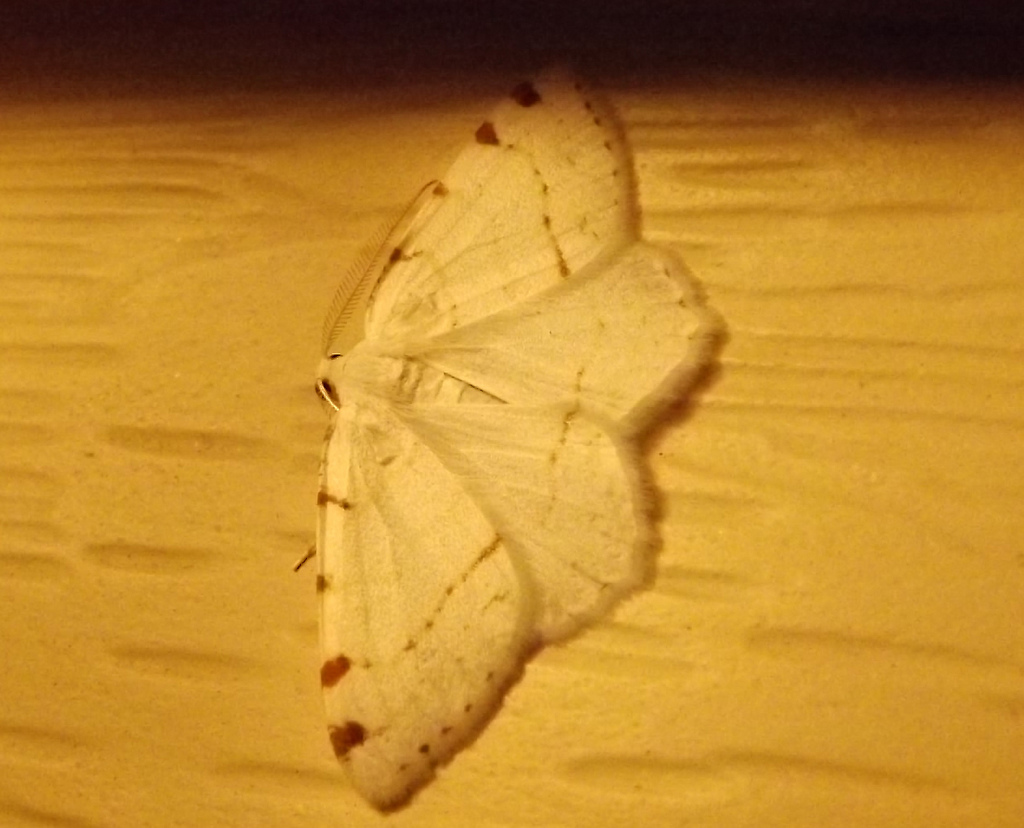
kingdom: Animalia
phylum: Arthropoda
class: Insecta
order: Lepidoptera
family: Geometridae
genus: Macaria
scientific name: Macaria pustularia
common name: Lesser maple spanworm moth
